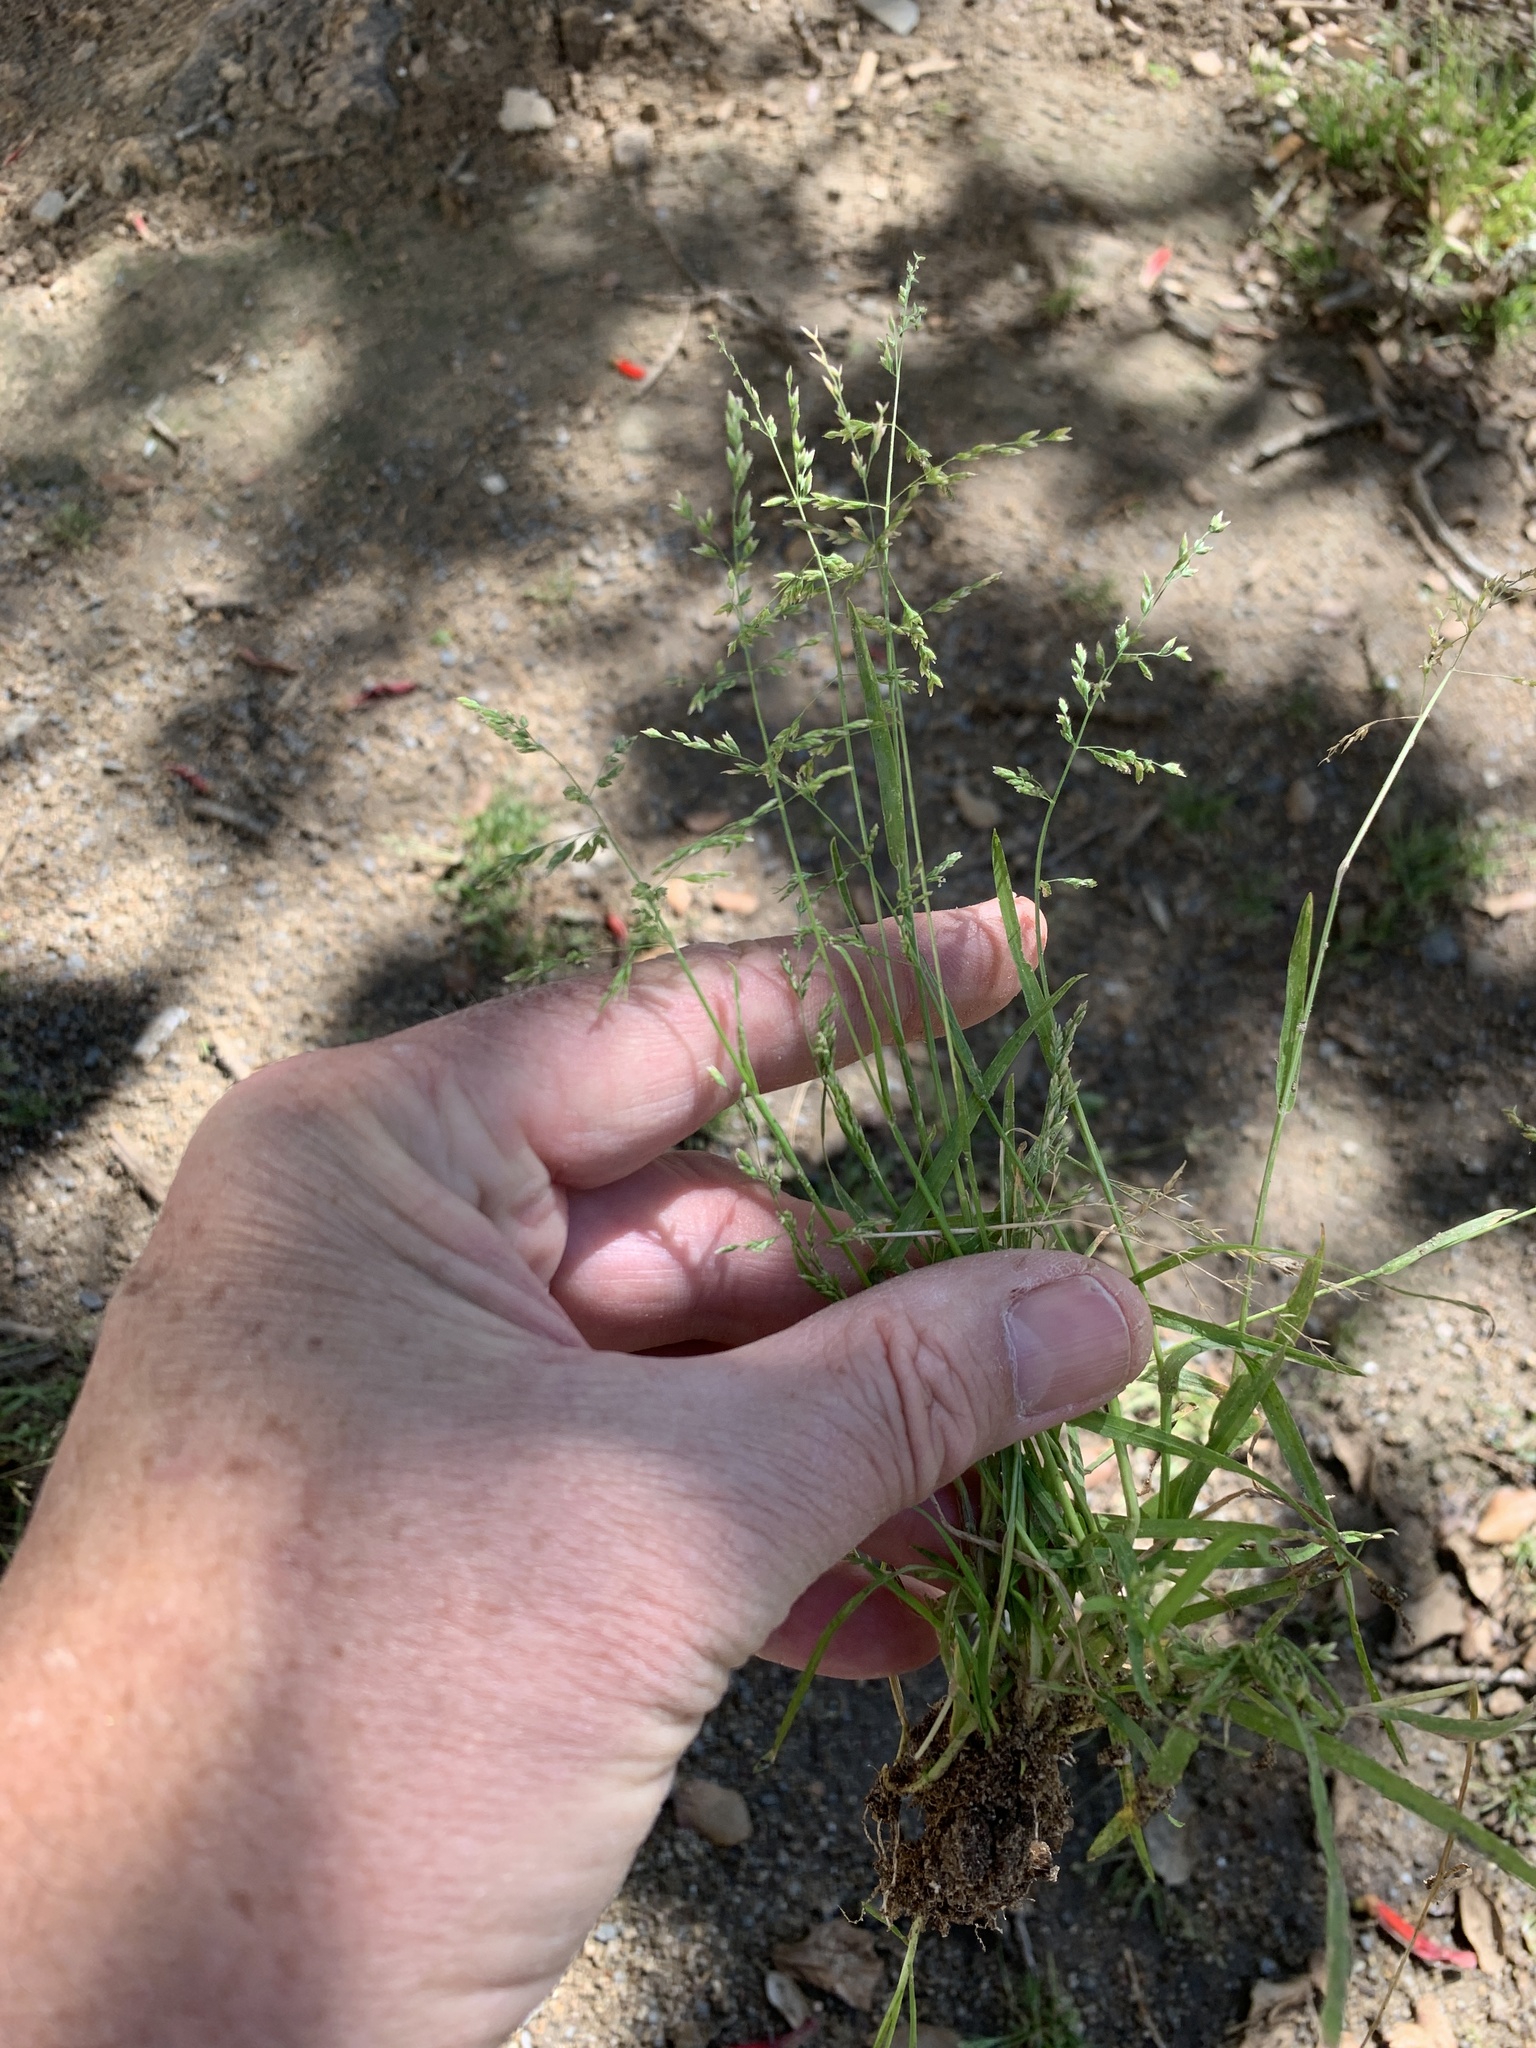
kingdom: Plantae
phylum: Tracheophyta
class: Liliopsida
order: Poales
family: Poaceae
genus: Poa
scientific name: Poa annua
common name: Annual bluegrass
